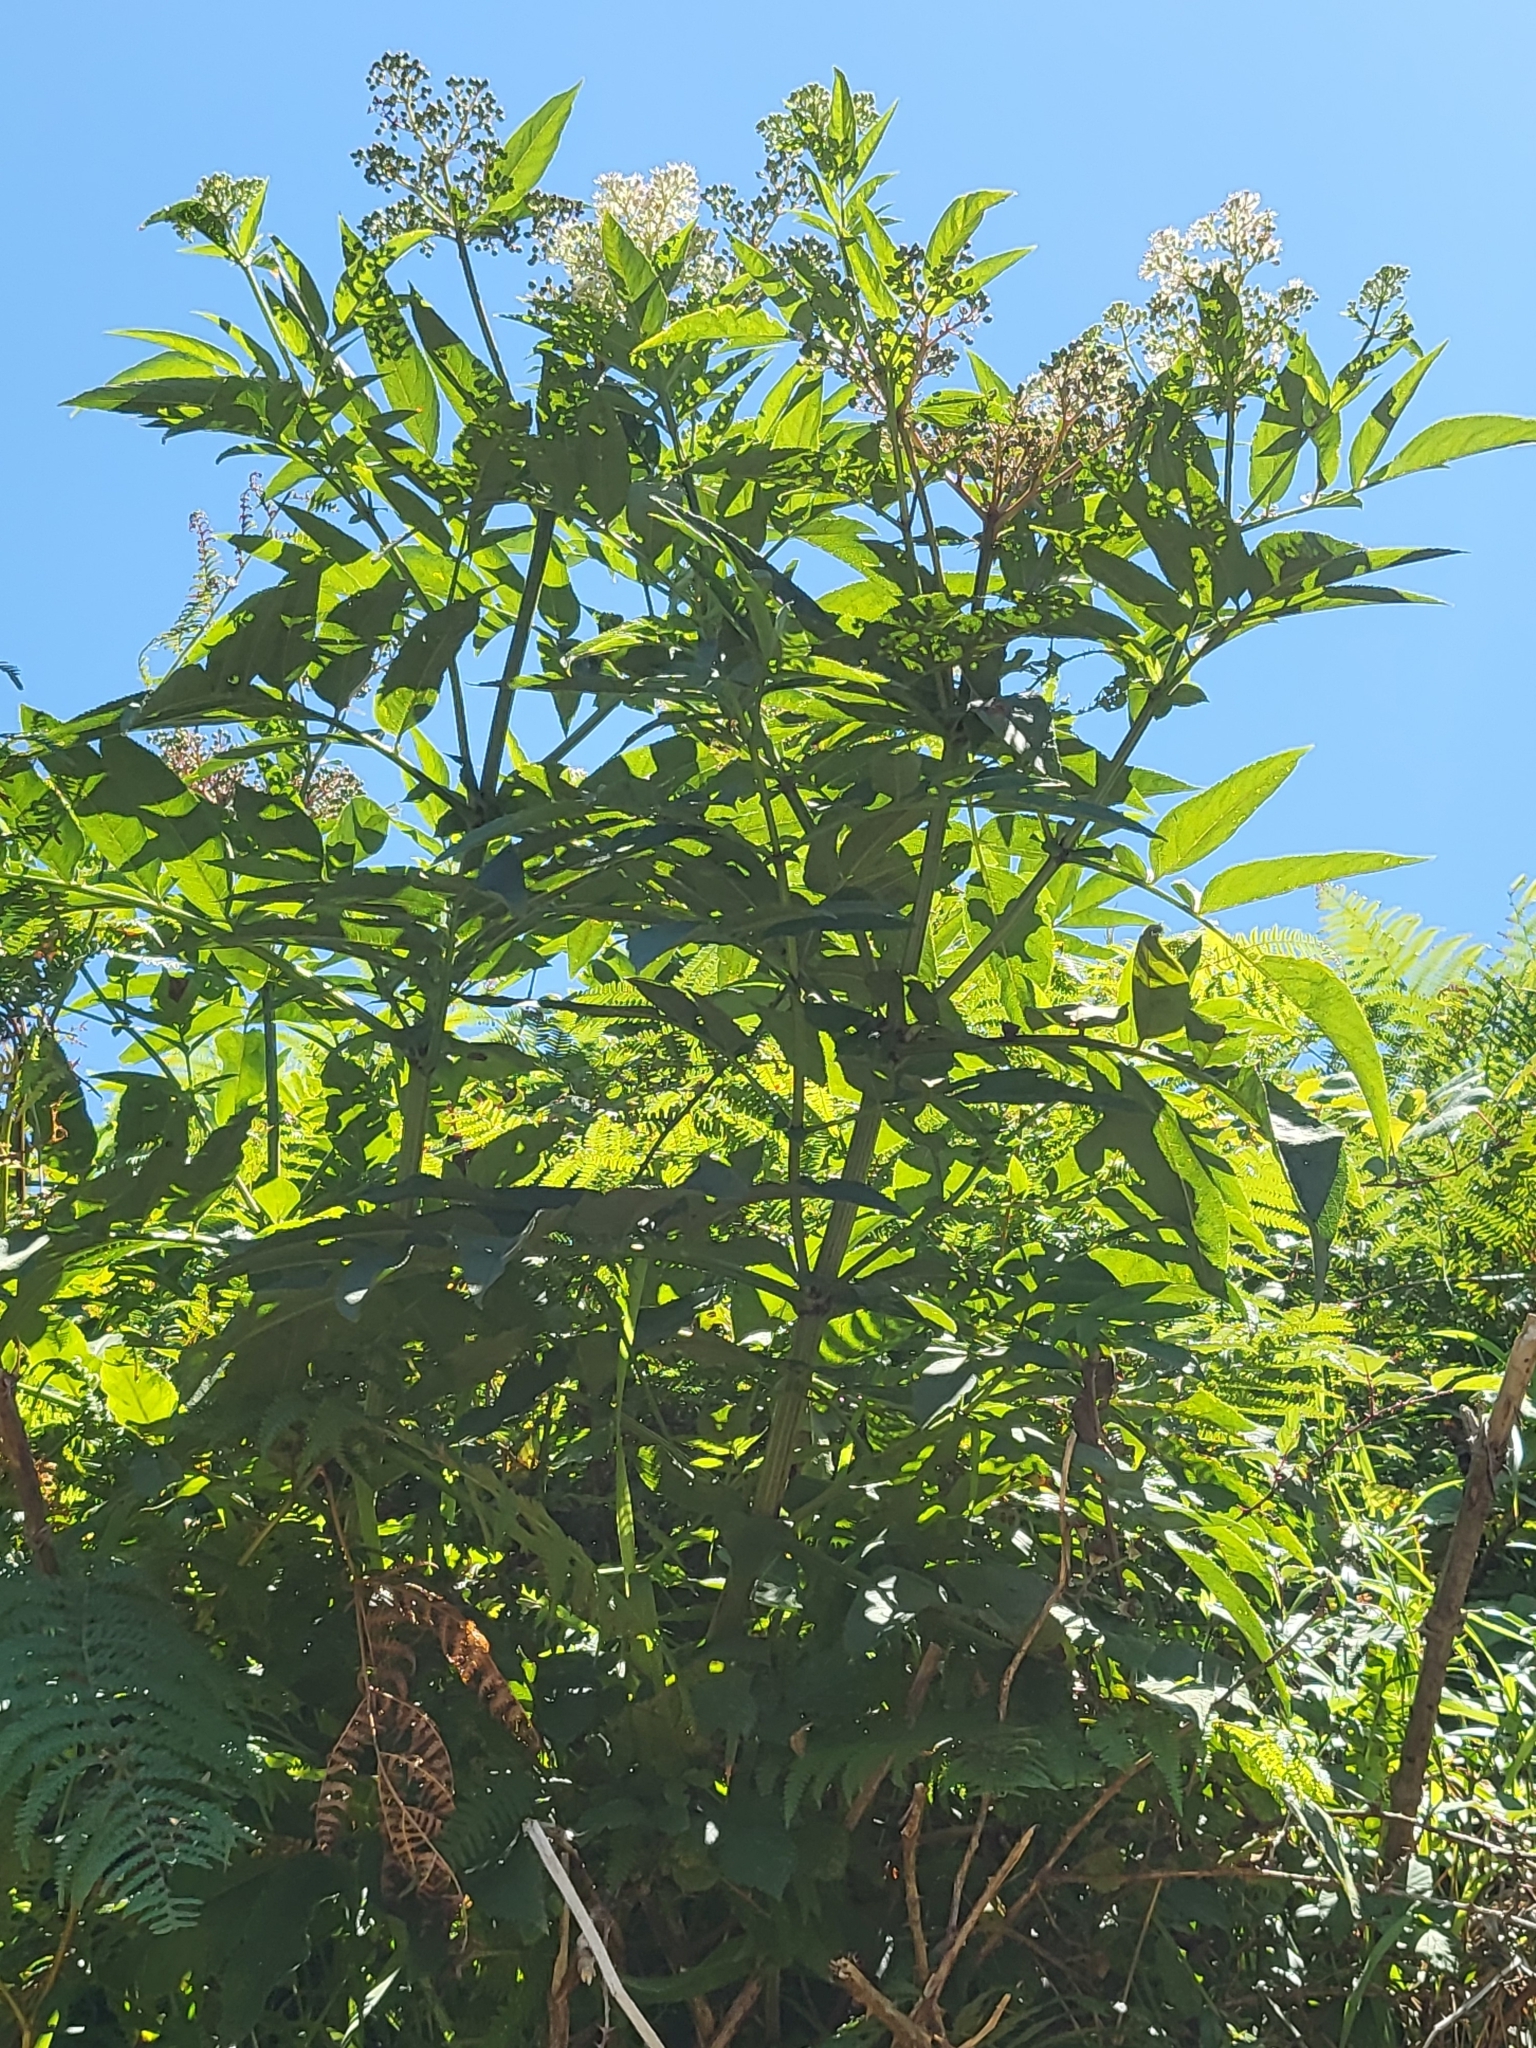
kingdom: Plantae
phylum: Tracheophyta
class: Magnoliopsida
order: Dipsacales
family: Viburnaceae
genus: Sambucus
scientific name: Sambucus nigra
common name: Elder
